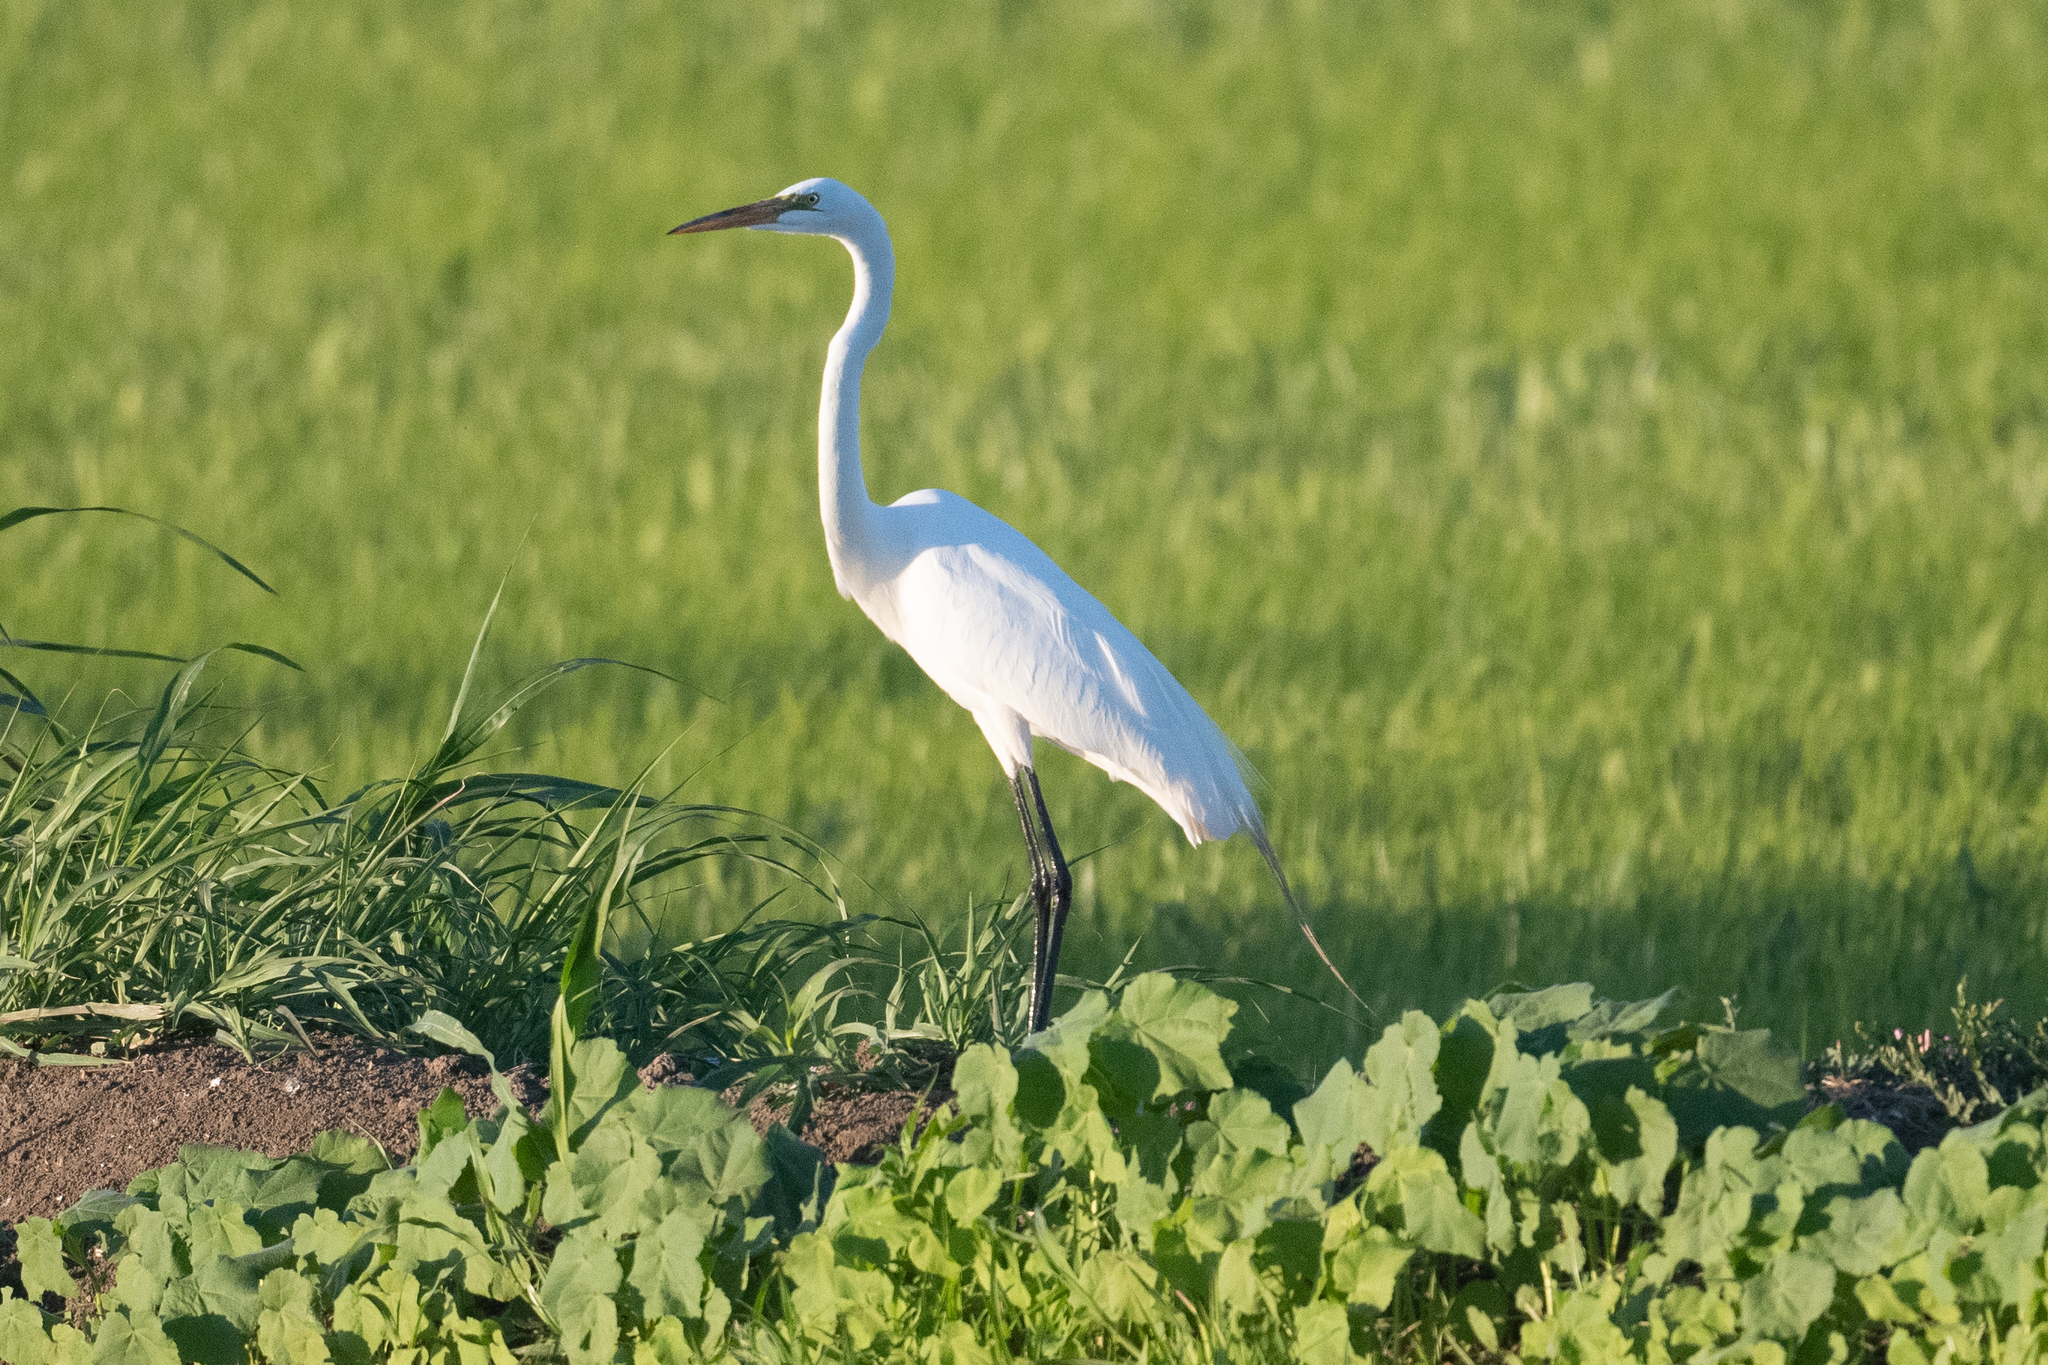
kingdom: Animalia
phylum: Chordata
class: Aves
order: Pelecaniformes
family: Ardeidae
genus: Ardea
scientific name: Ardea alba
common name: Great egret
